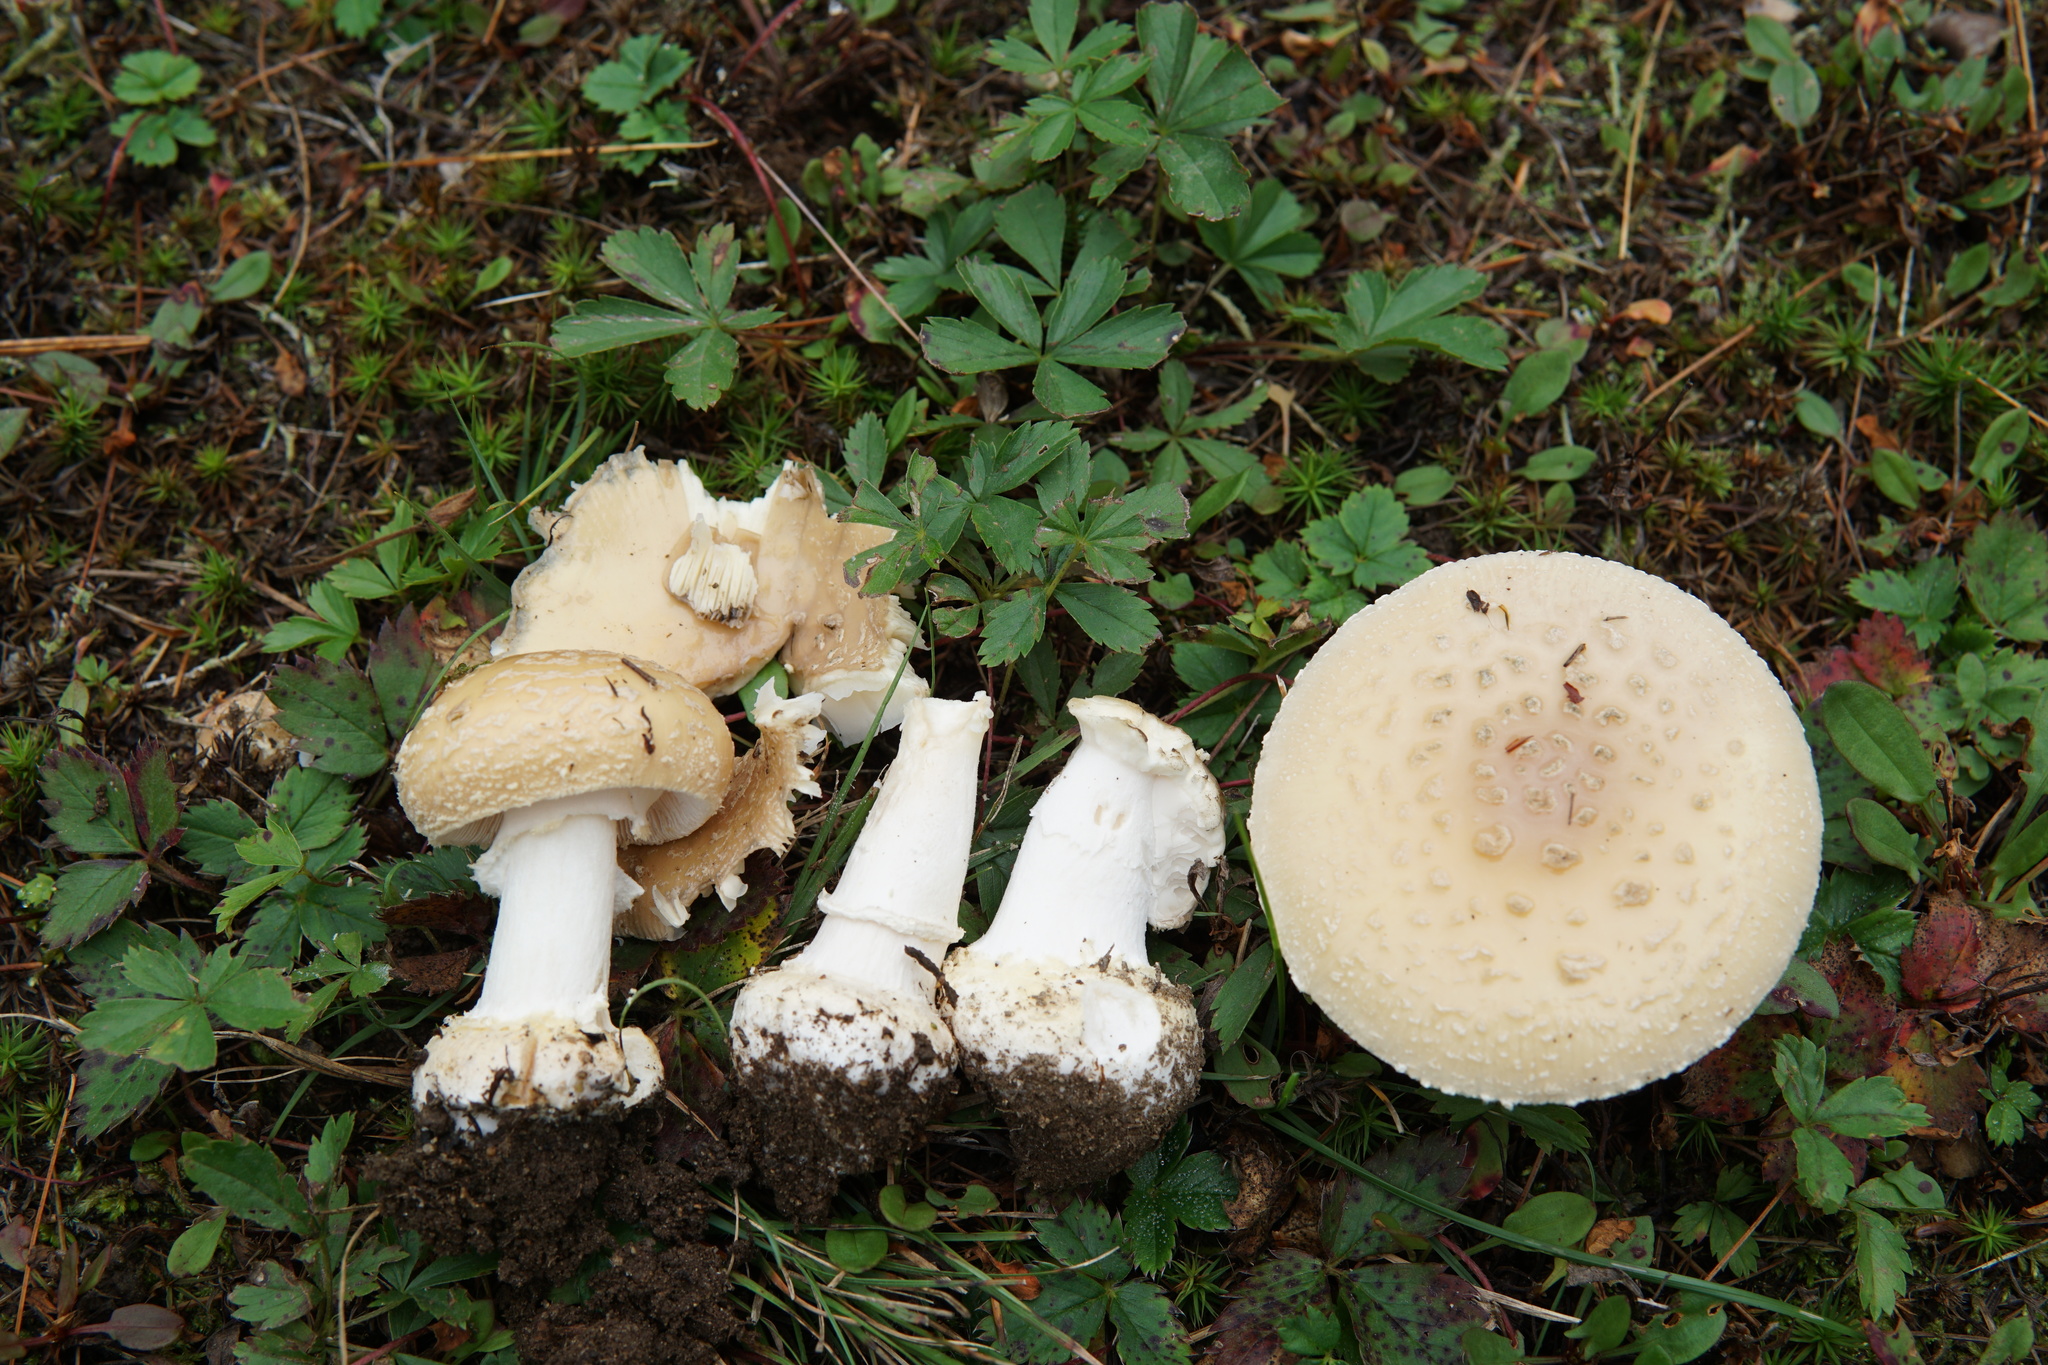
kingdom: Fungi
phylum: Basidiomycota
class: Agaricomycetes
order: Agaricales
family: Amanitaceae
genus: Amanita
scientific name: Amanita crenulata
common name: Poison champagne amanita
